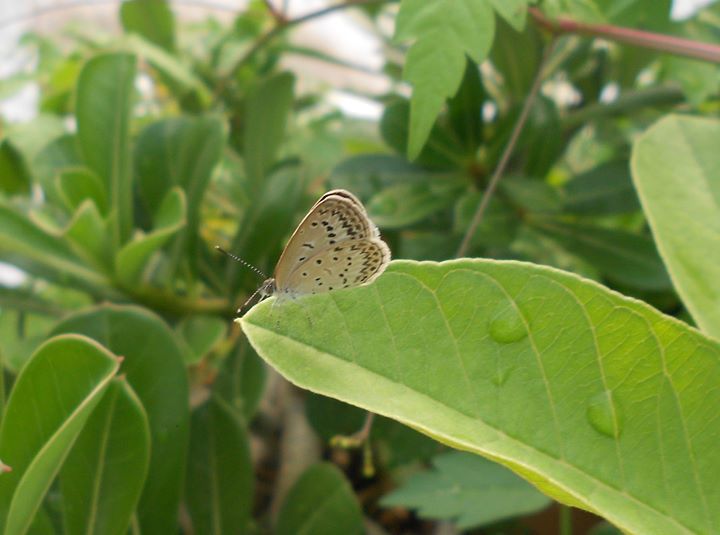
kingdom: Animalia
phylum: Arthropoda
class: Insecta
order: Lepidoptera
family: Lycaenidae
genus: Pseudozizeeria
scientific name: Pseudozizeeria maha
